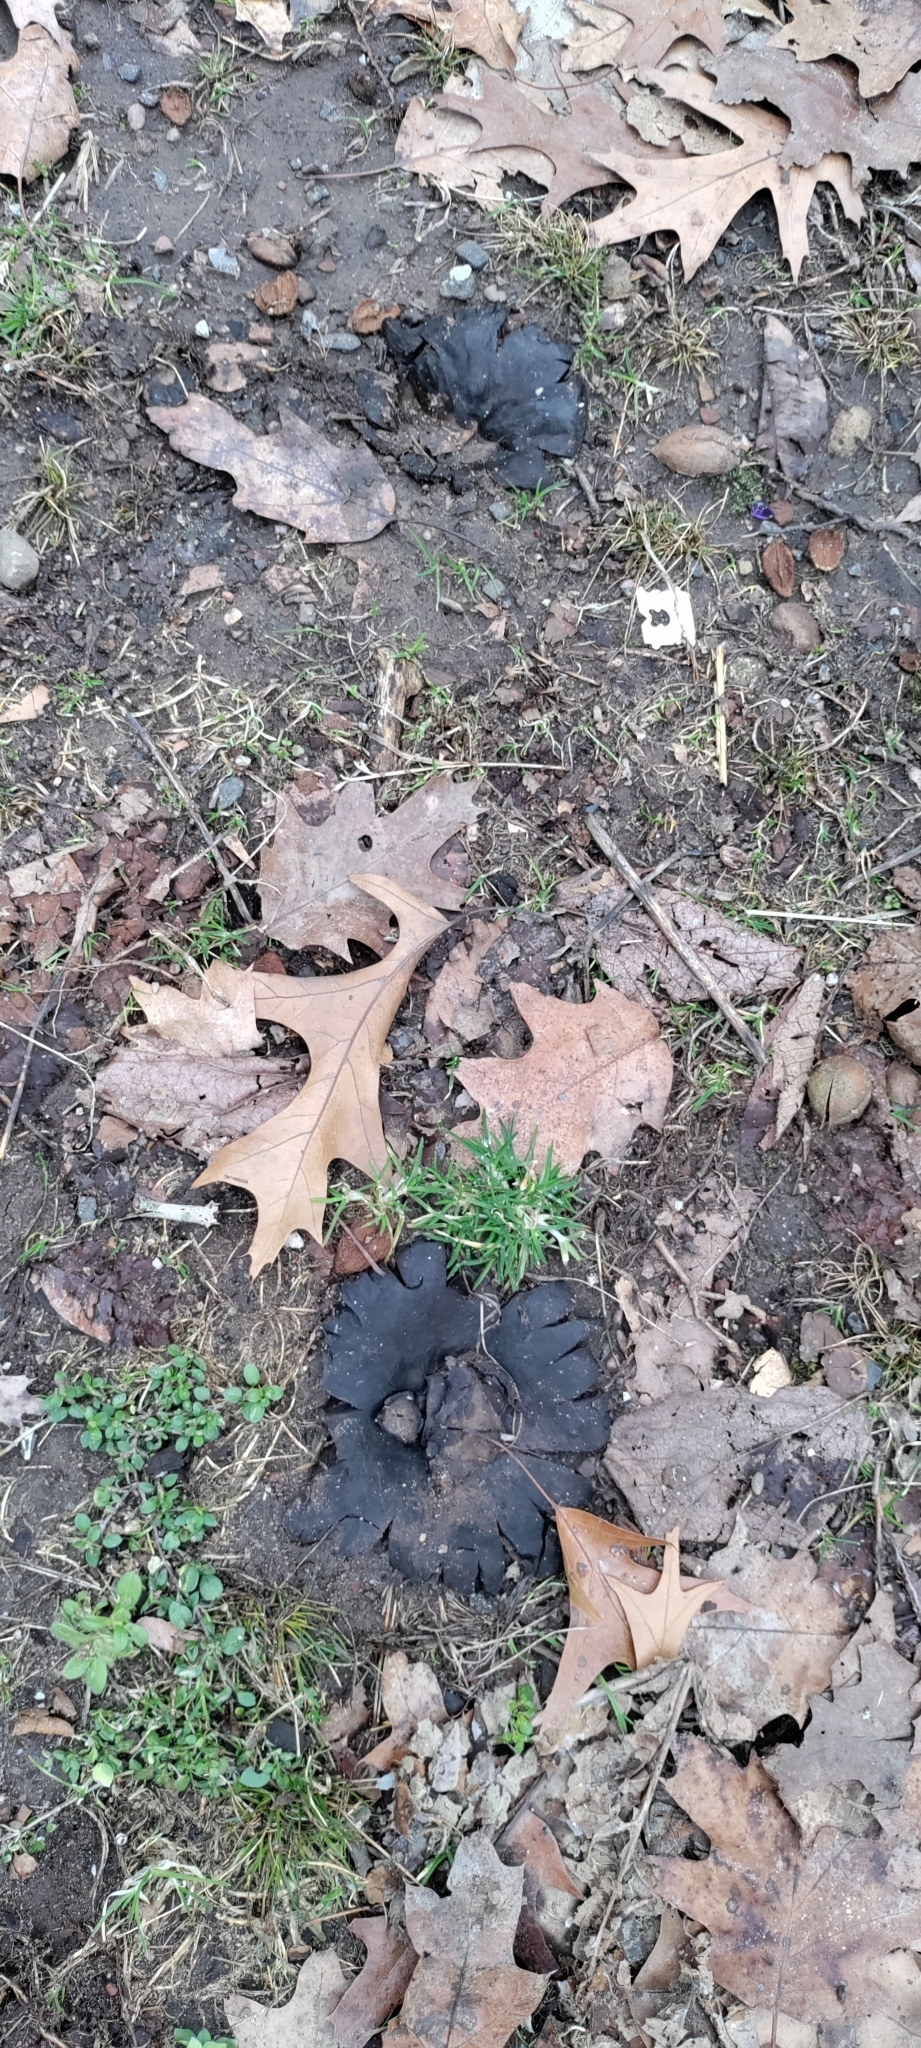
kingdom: Fungi
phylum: Basidiomycota
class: Agaricomycetes
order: Boletales
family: Sclerodermataceae
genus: Scleroderma
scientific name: Scleroderma polyrhizum
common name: Many-rooted earthball
